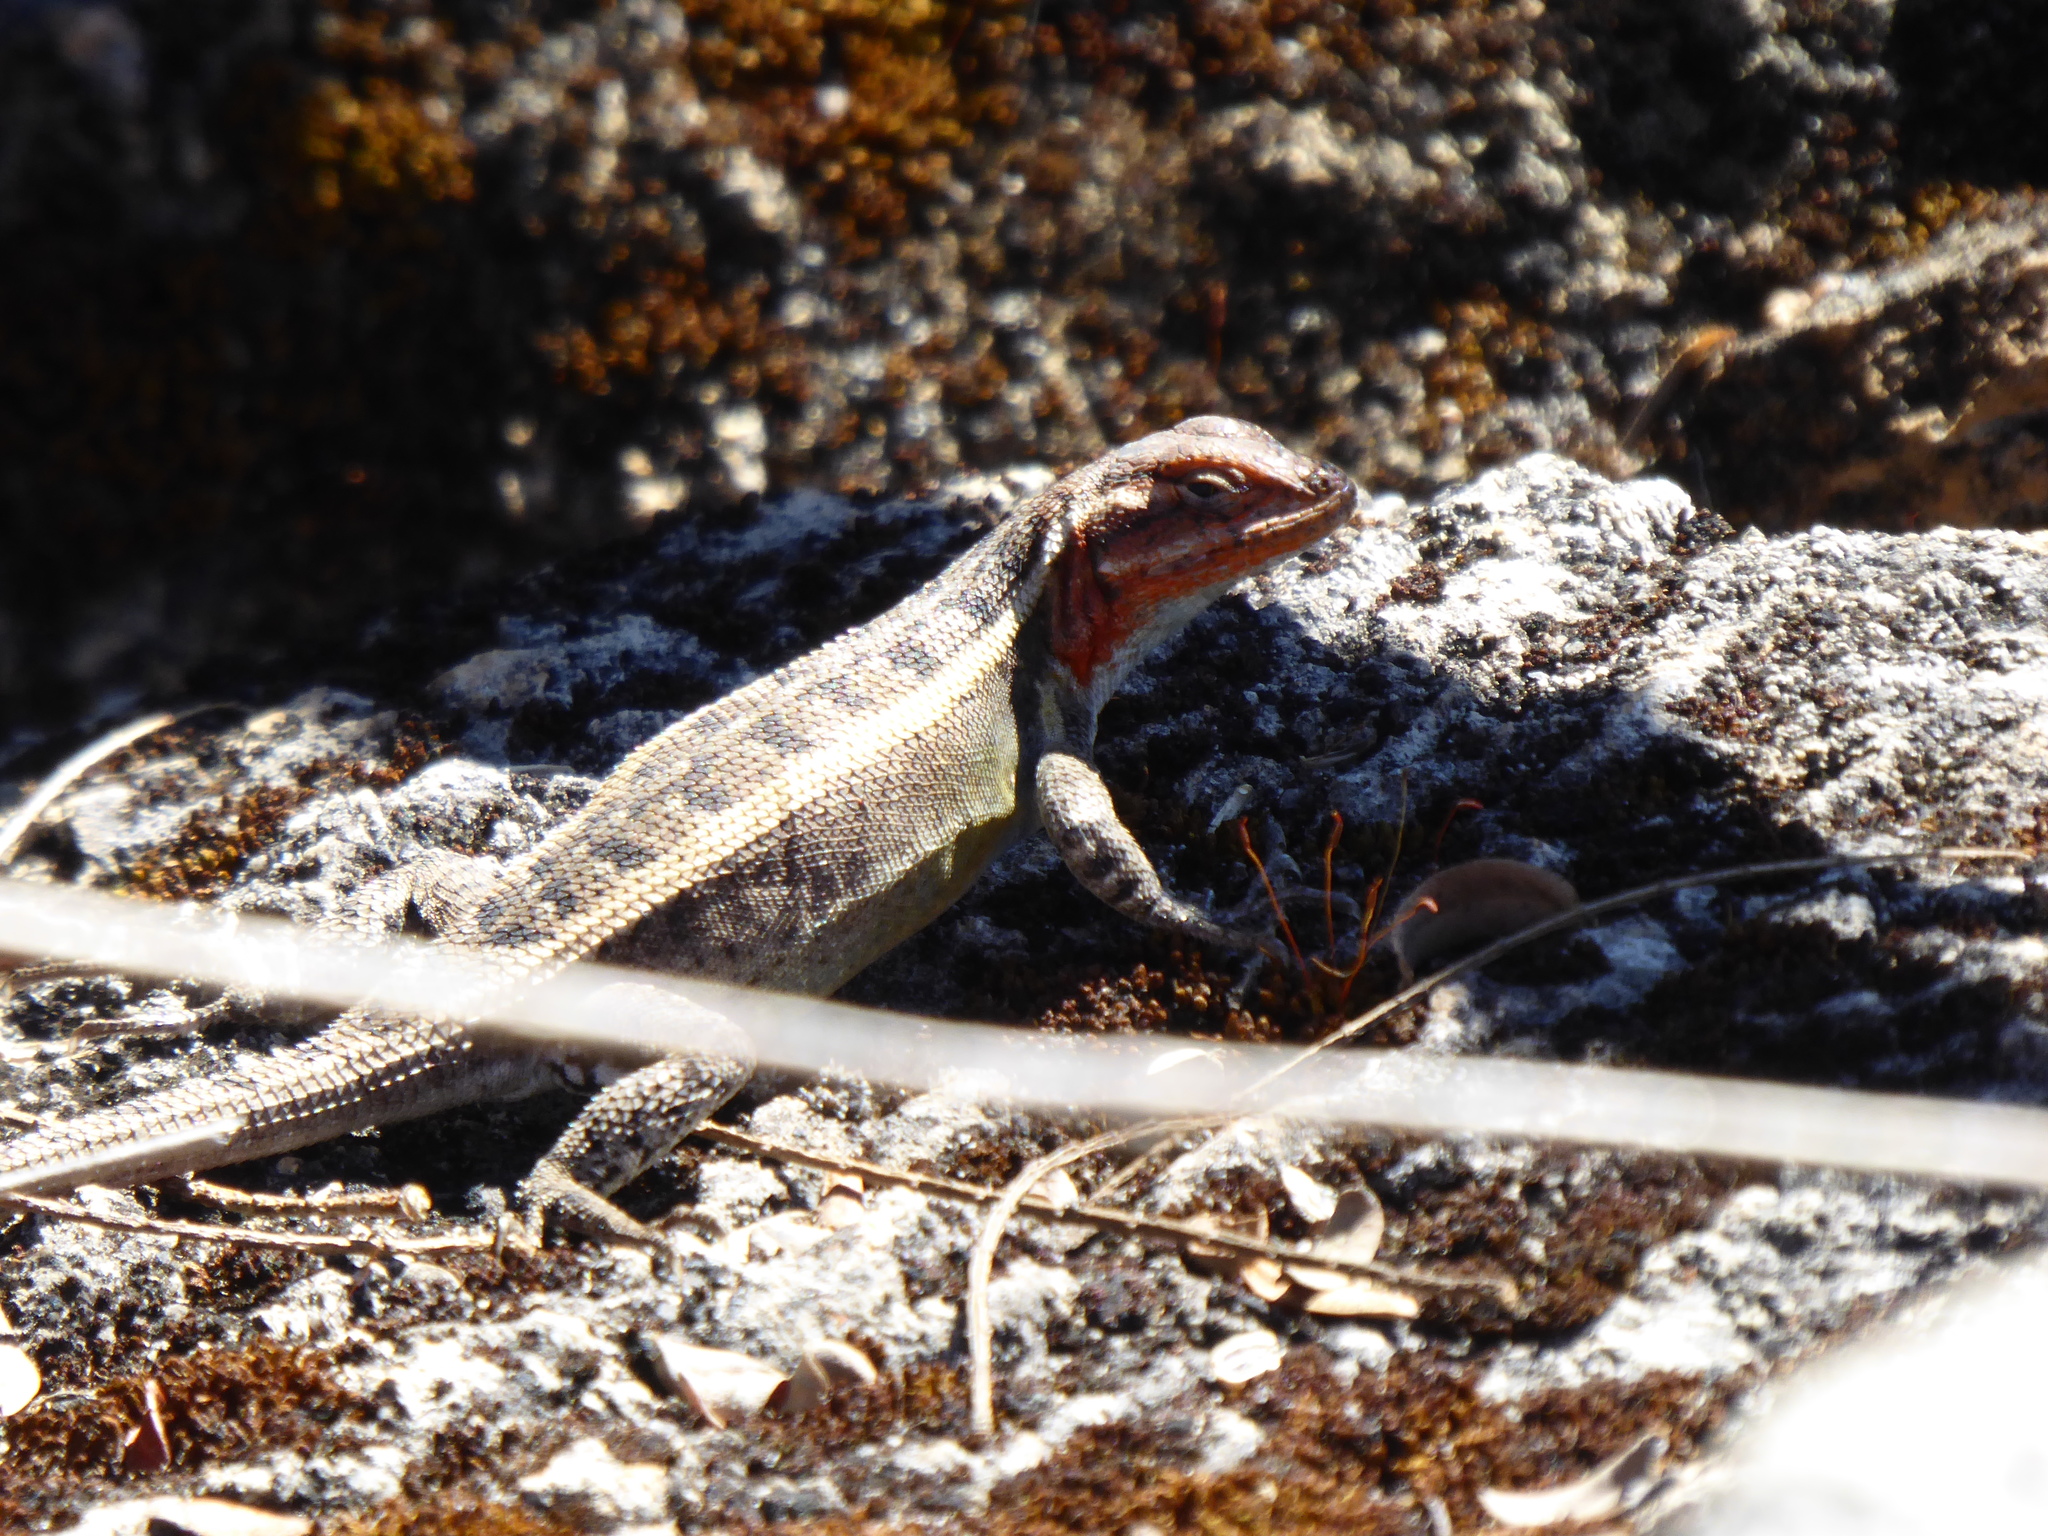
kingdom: Animalia
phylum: Chordata
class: Squamata
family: Phrynosomatidae
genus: Sceloporus
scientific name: Sceloporus siniferus
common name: Longtail spiny lizard
